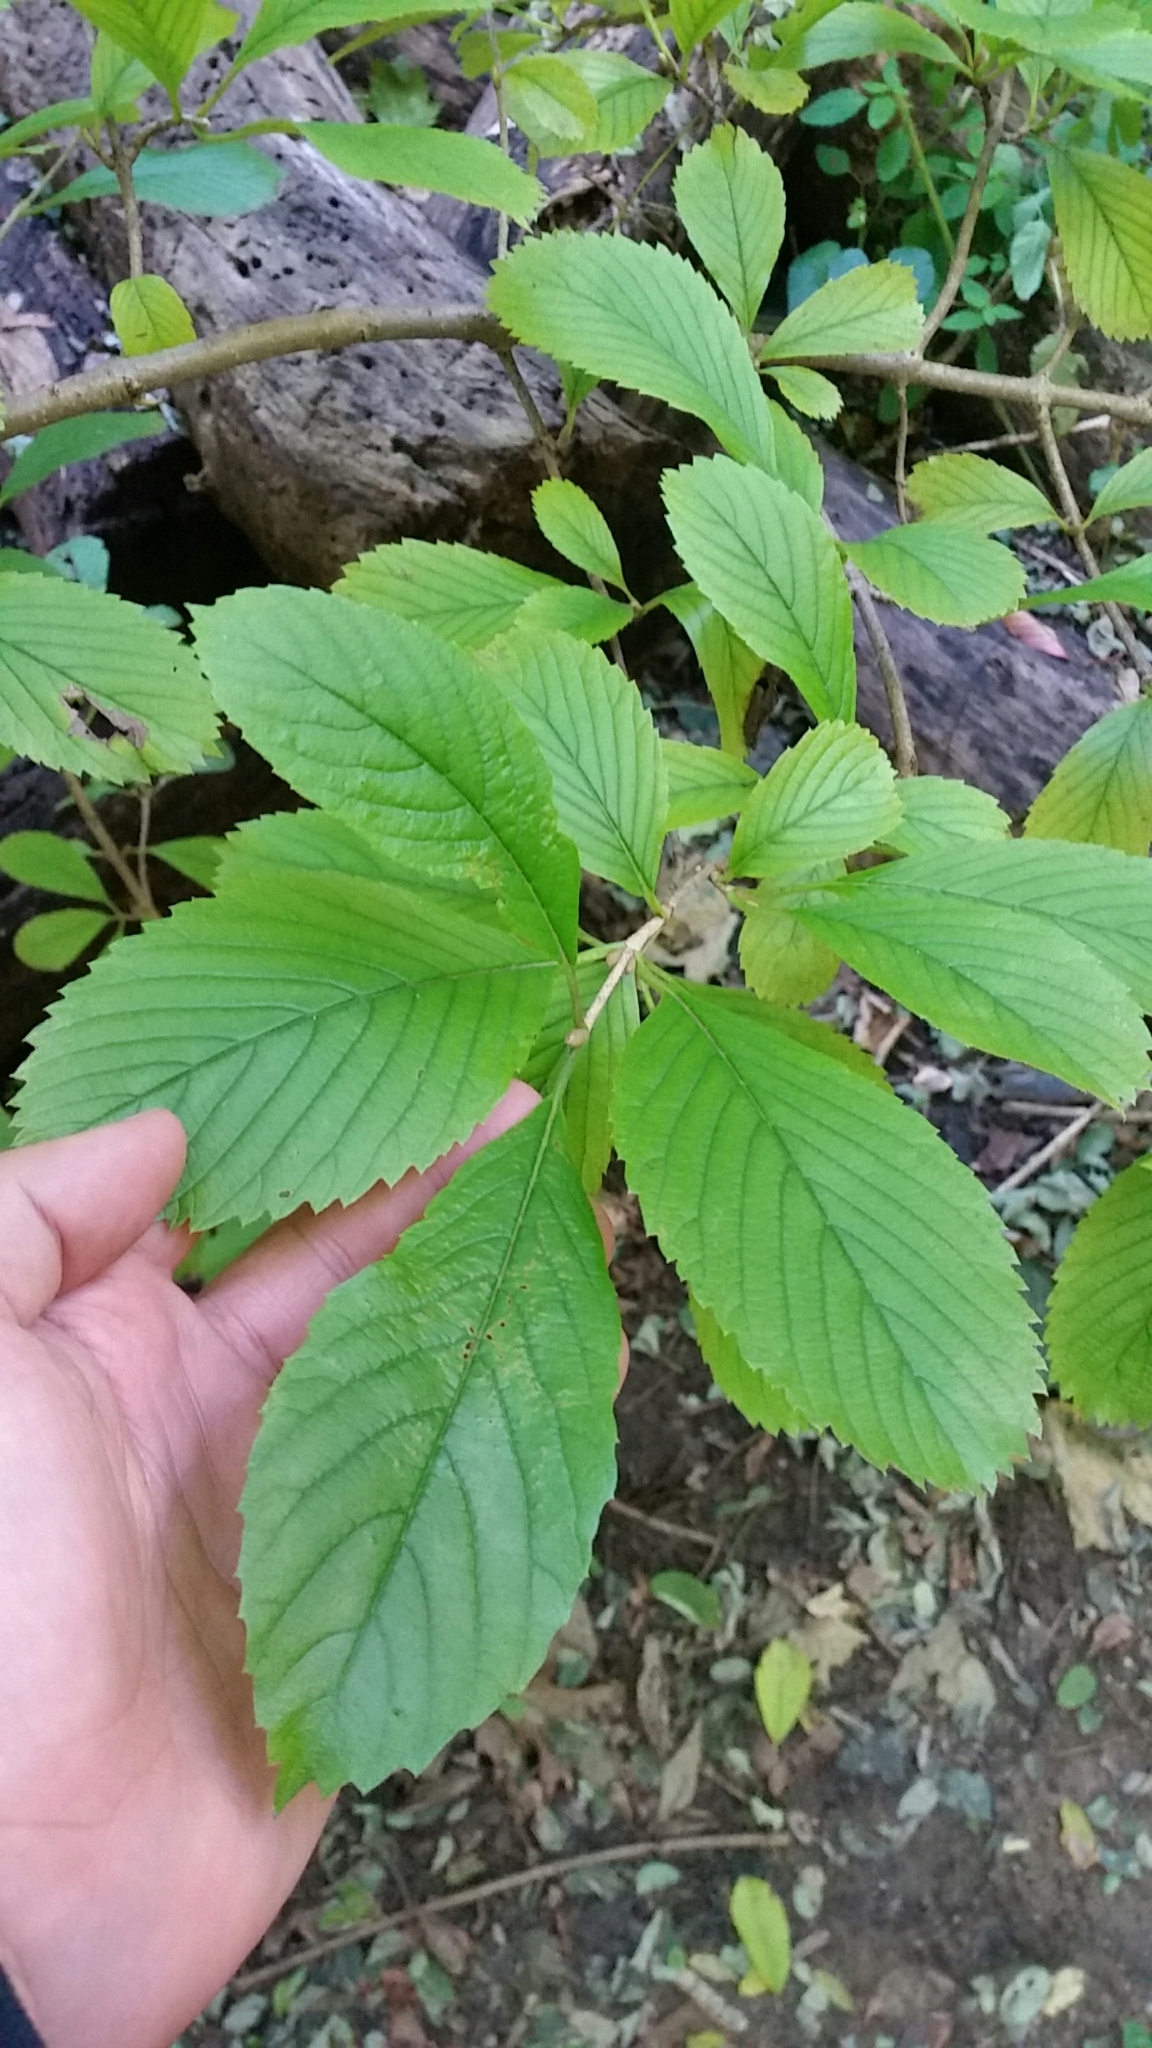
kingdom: Plantae
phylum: Tracheophyta
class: Magnoliopsida
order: Dipsacales
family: Viburnaceae
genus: Viburnum
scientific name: Viburnum sieboldii
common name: Siebold's arrowwood
